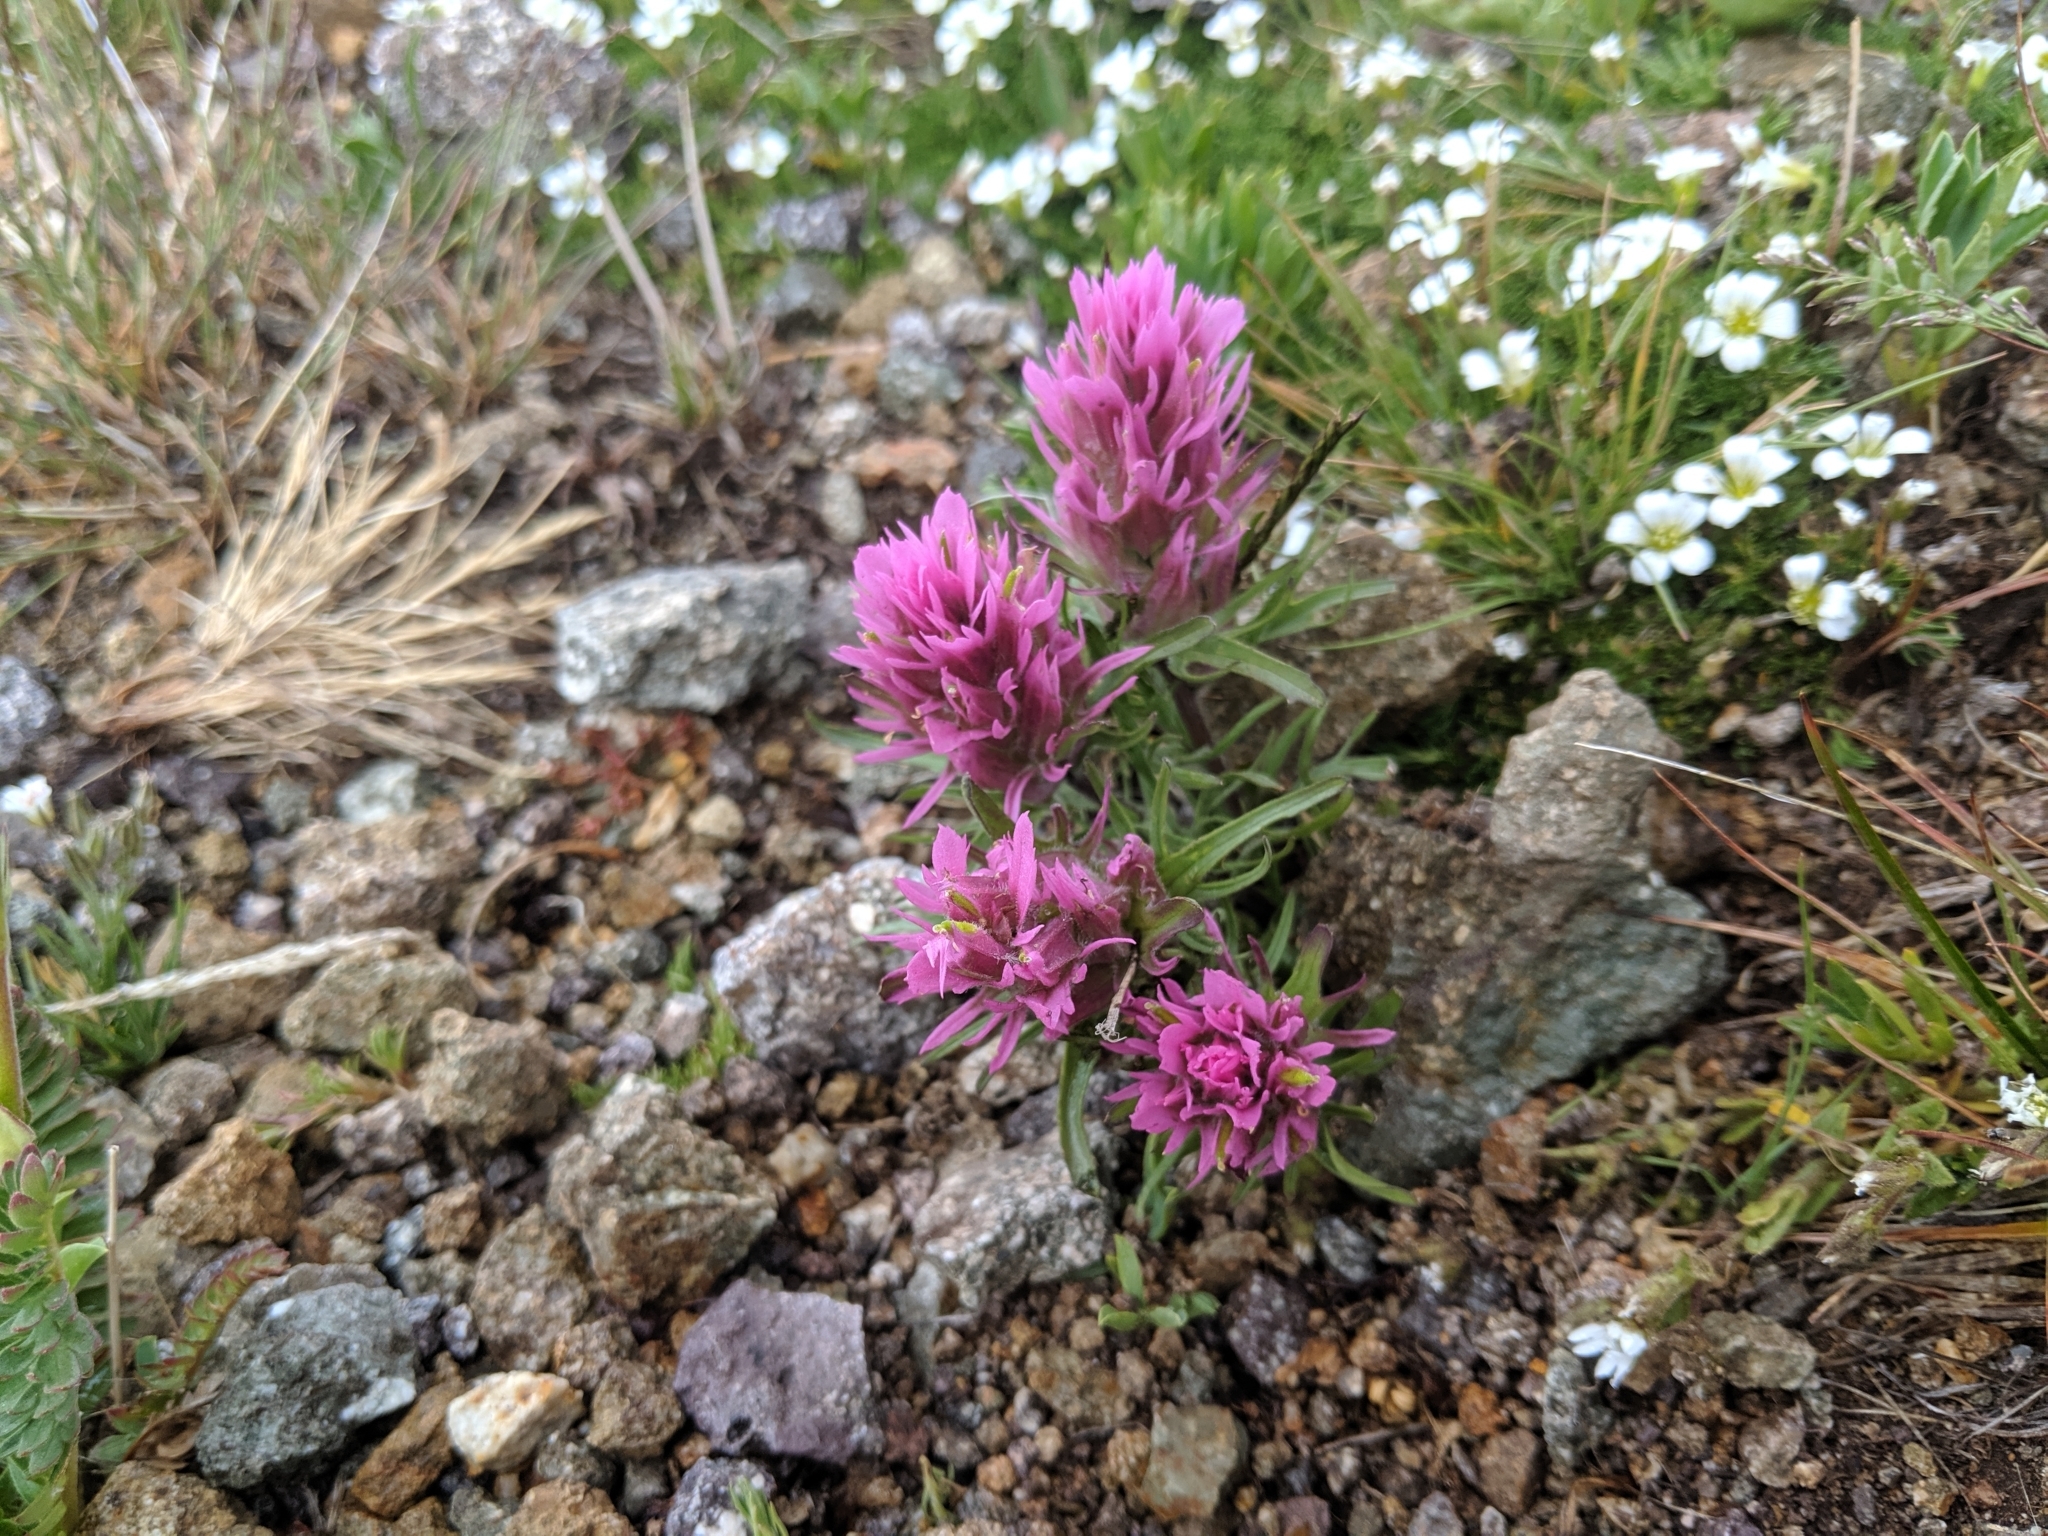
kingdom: Plantae
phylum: Tracheophyta
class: Magnoliopsida
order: Lamiales
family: Orobanchaceae
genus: Castilleja
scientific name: Castilleja haydenii
